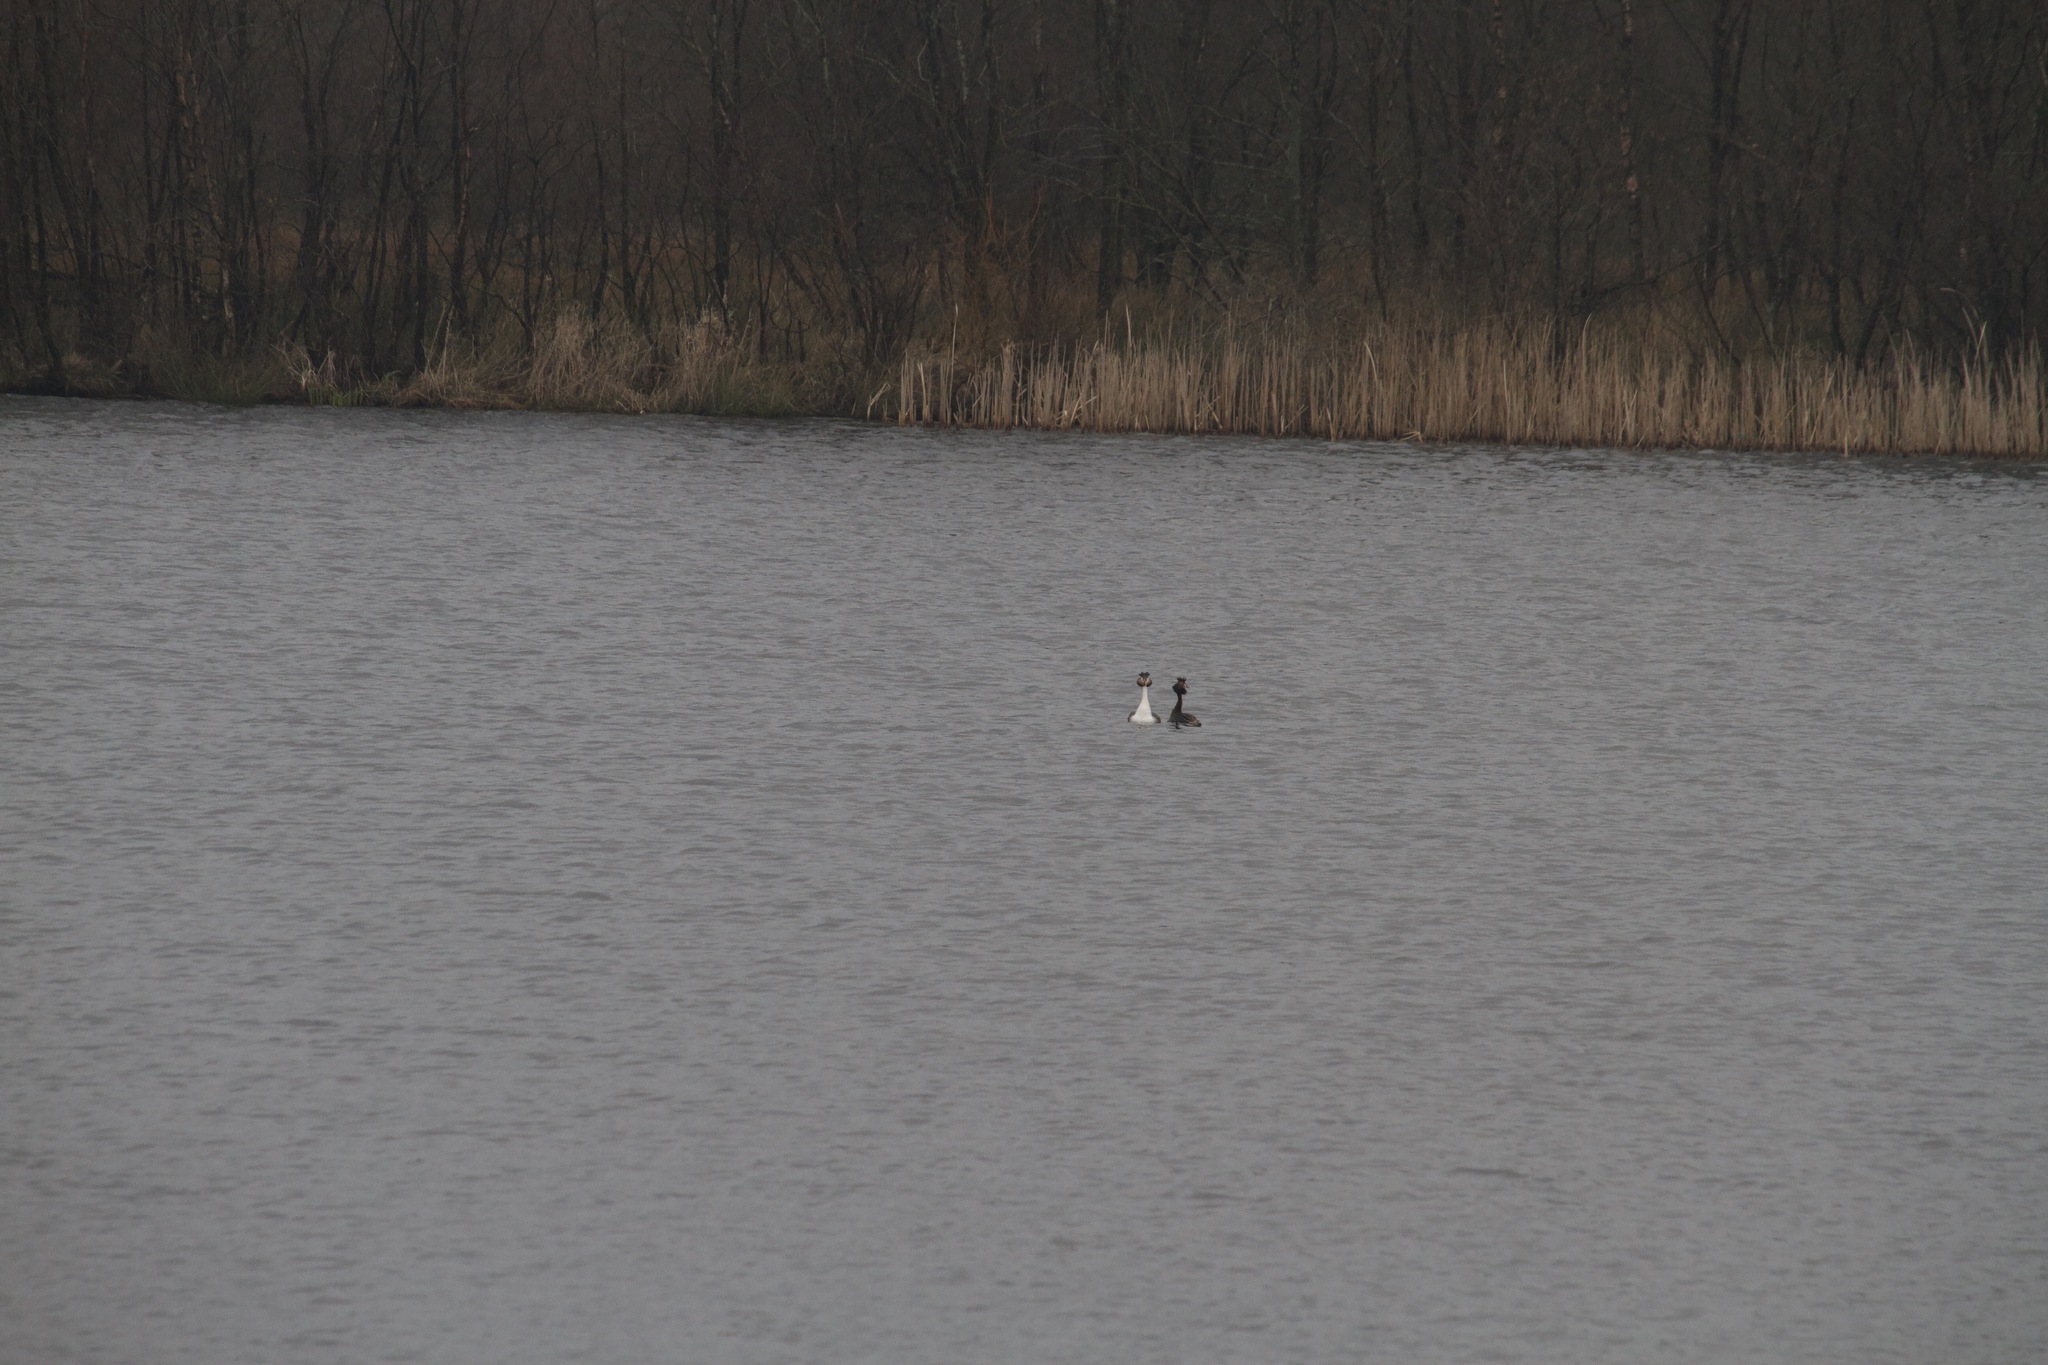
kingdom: Animalia
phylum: Chordata
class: Aves
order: Podicipediformes
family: Podicipedidae
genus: Podiceps
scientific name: Podiceps cristatus
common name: Great crested grebe
